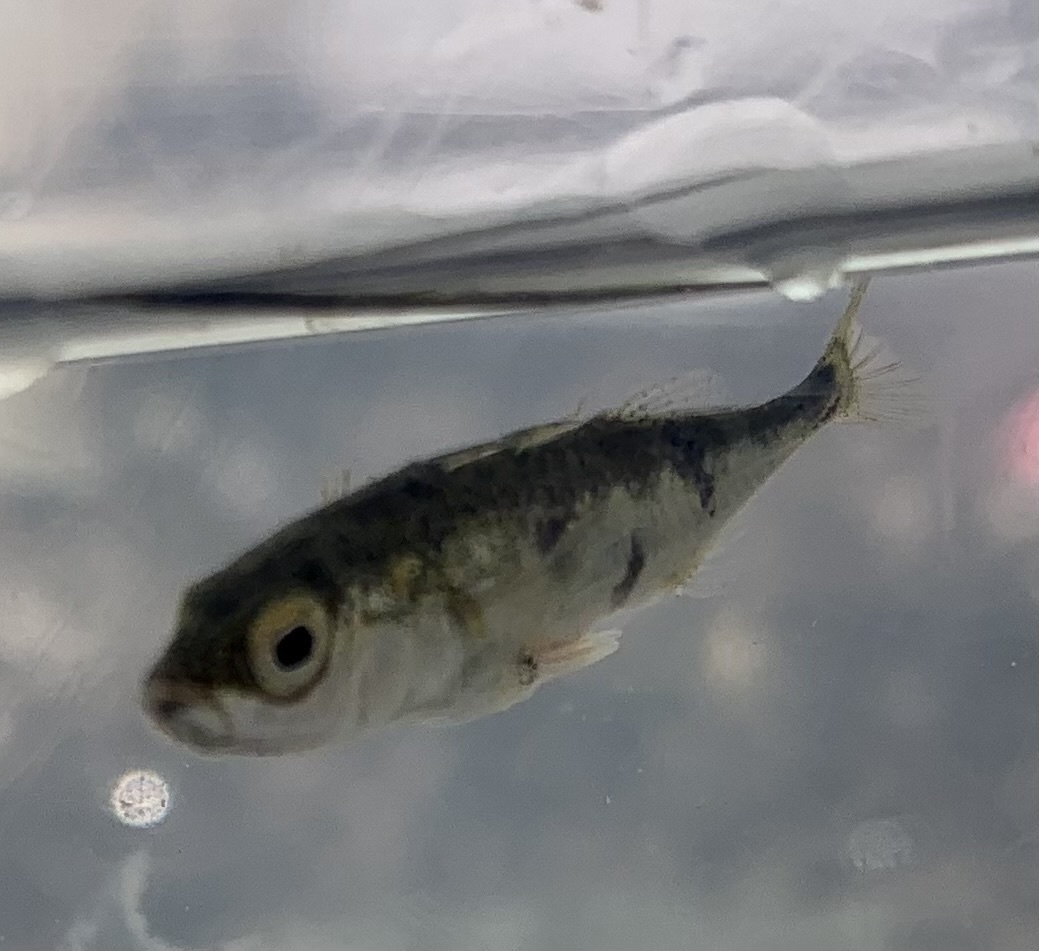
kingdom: Animalia
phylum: Chordata
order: Gasterosteiformes
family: Gasterosteidae
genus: Gasterosteus
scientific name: Gasterosteus aculeatus
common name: Three-spined stickleback
